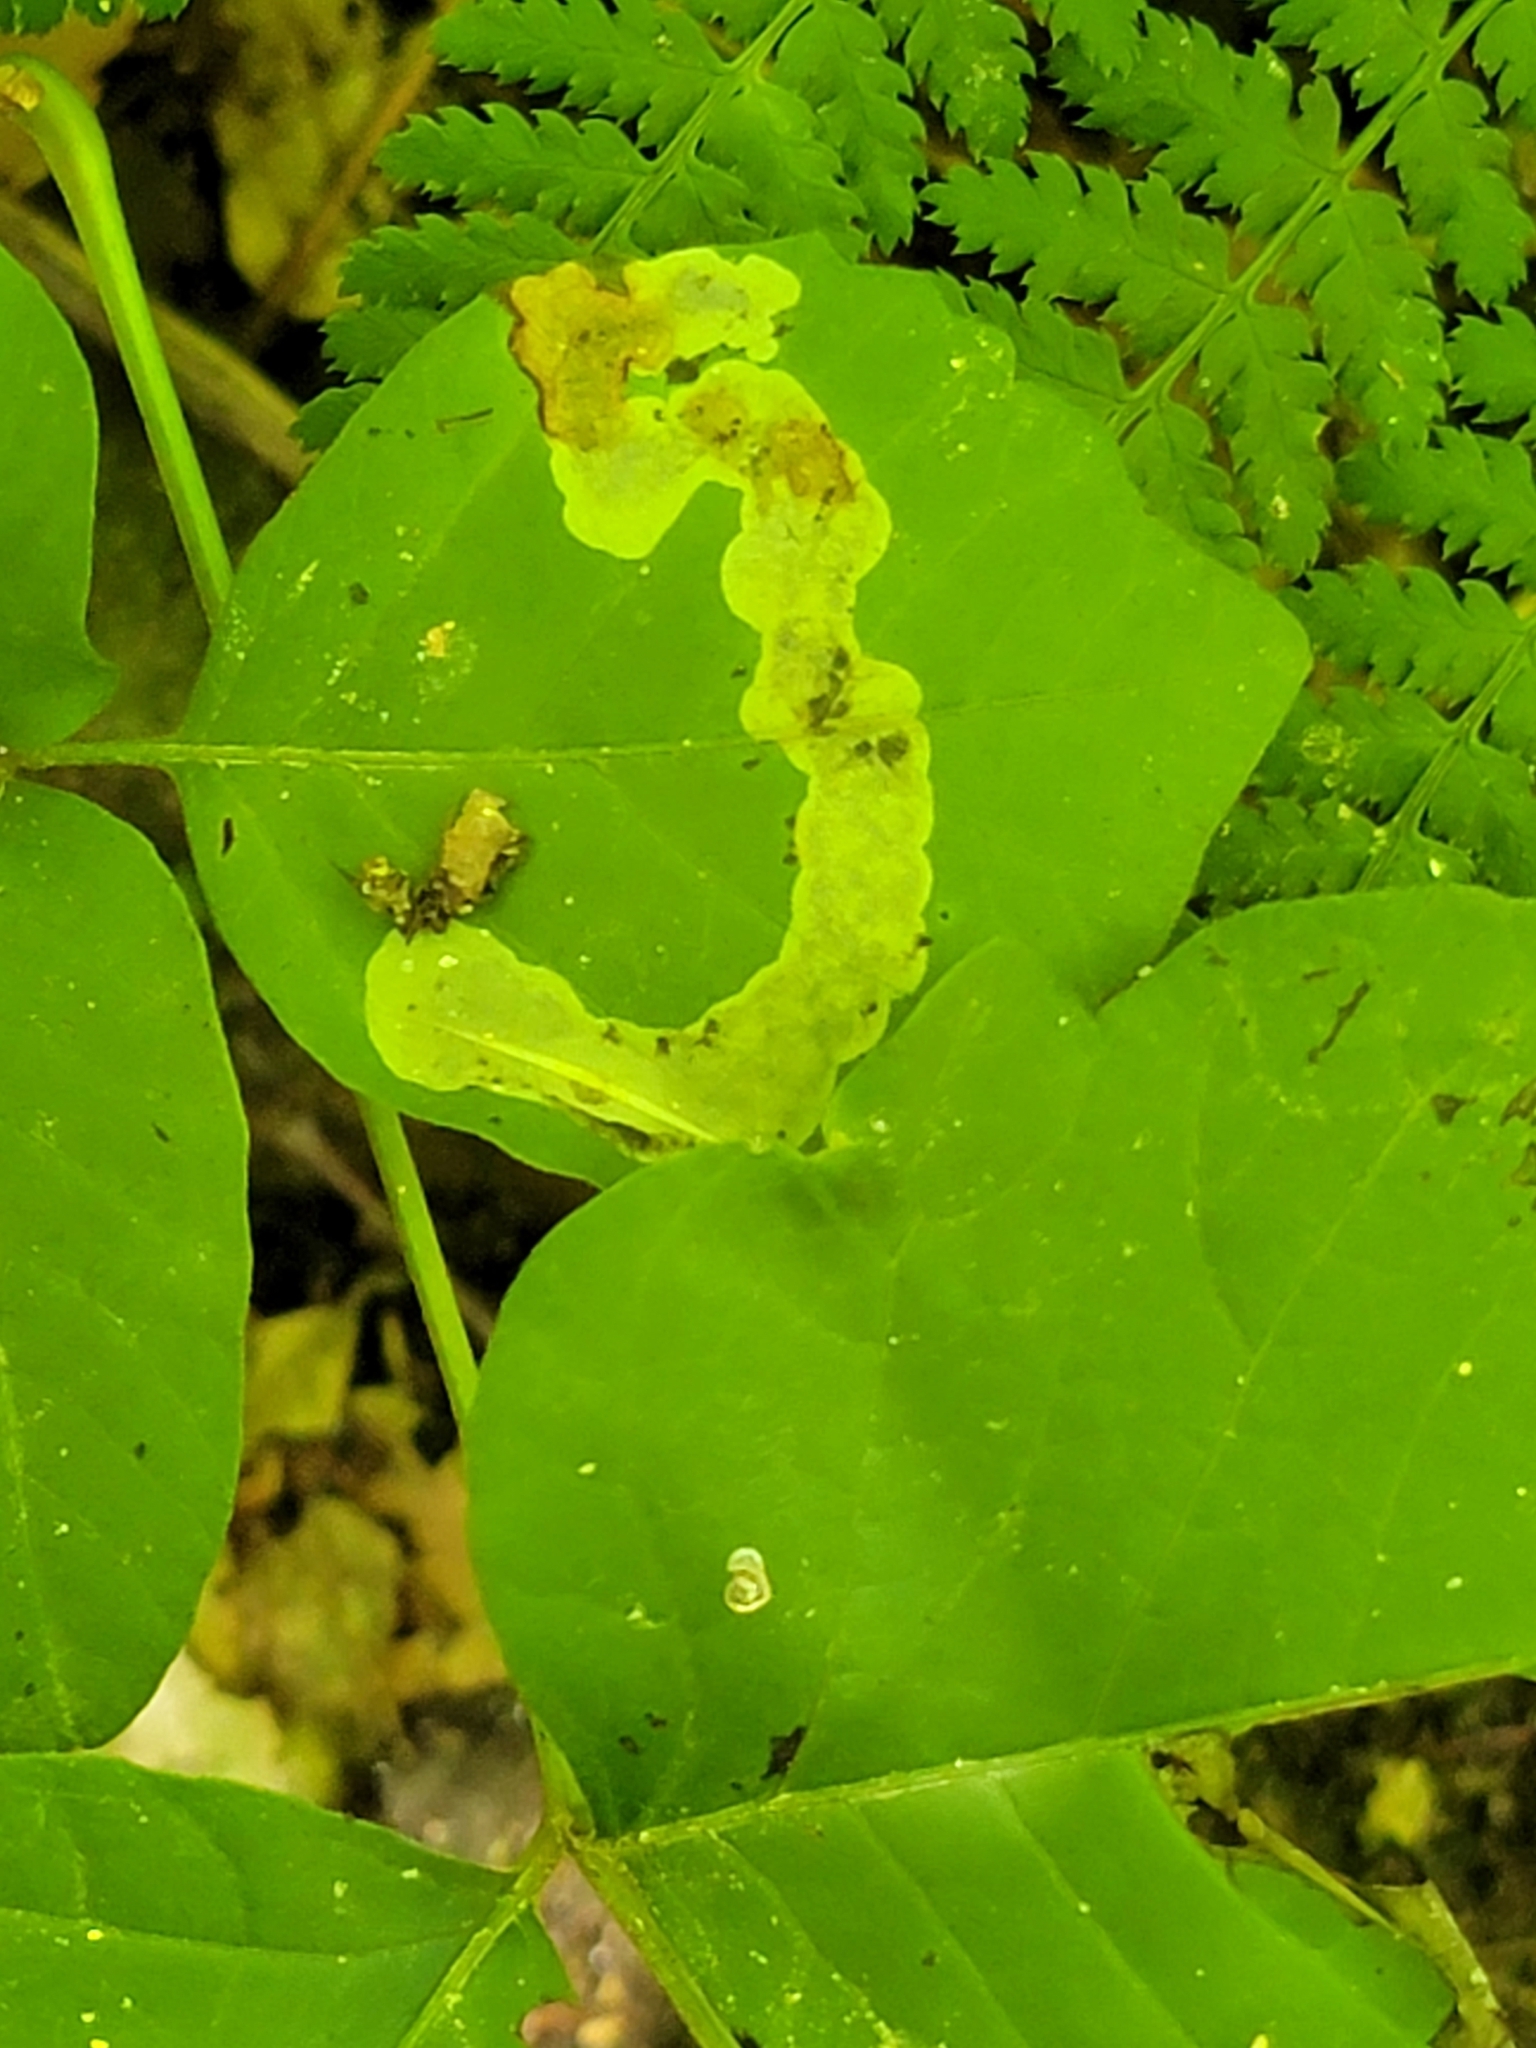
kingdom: Animalia
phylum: Arthropoda
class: Insecta
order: Lepidoptera
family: Gracillariidae
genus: Cameraria
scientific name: Cameraria guttifinitella
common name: Poison ivy leaf-miner moth
